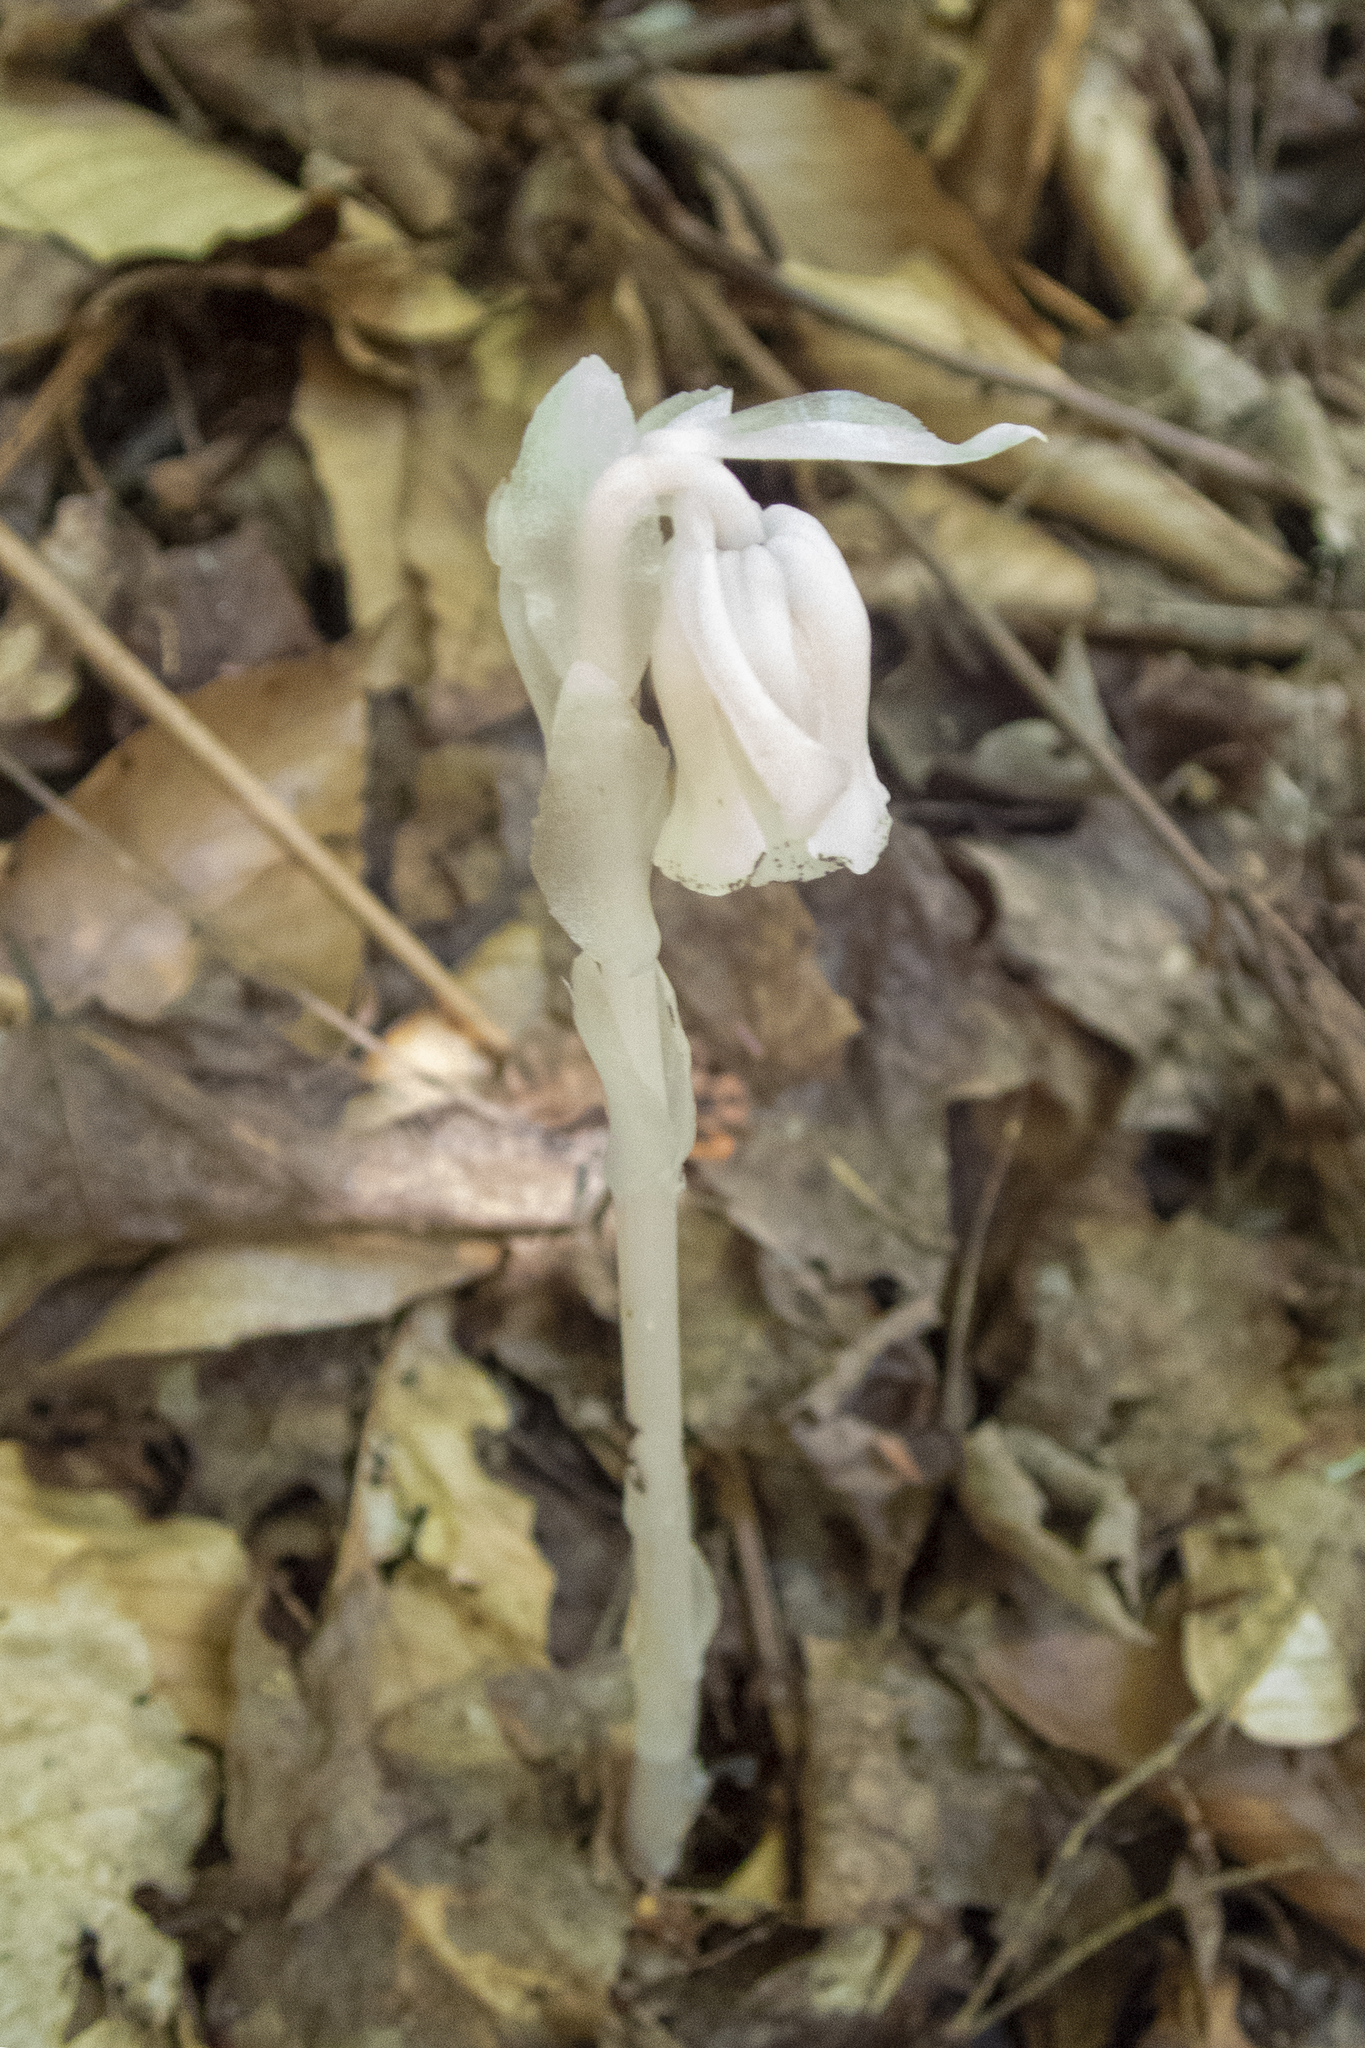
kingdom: Plantae
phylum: Tracheophyta
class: Magnoliopsida
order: Ericales
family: Ericaceae
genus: Monotropa
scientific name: Monotropa uniflora
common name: Convulsion root
